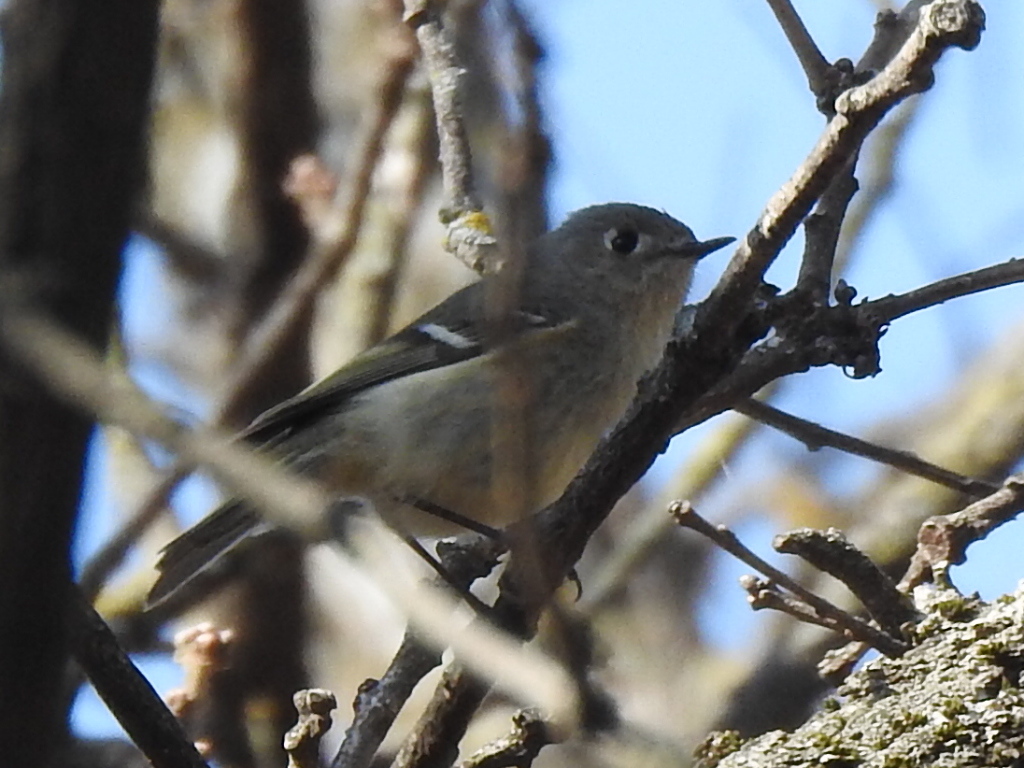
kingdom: Animalia
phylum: Chordata
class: Aves
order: Passeriformes
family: Regulidae
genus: Regulus
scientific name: Regulus calendula
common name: Ruby-crowned kinglet
